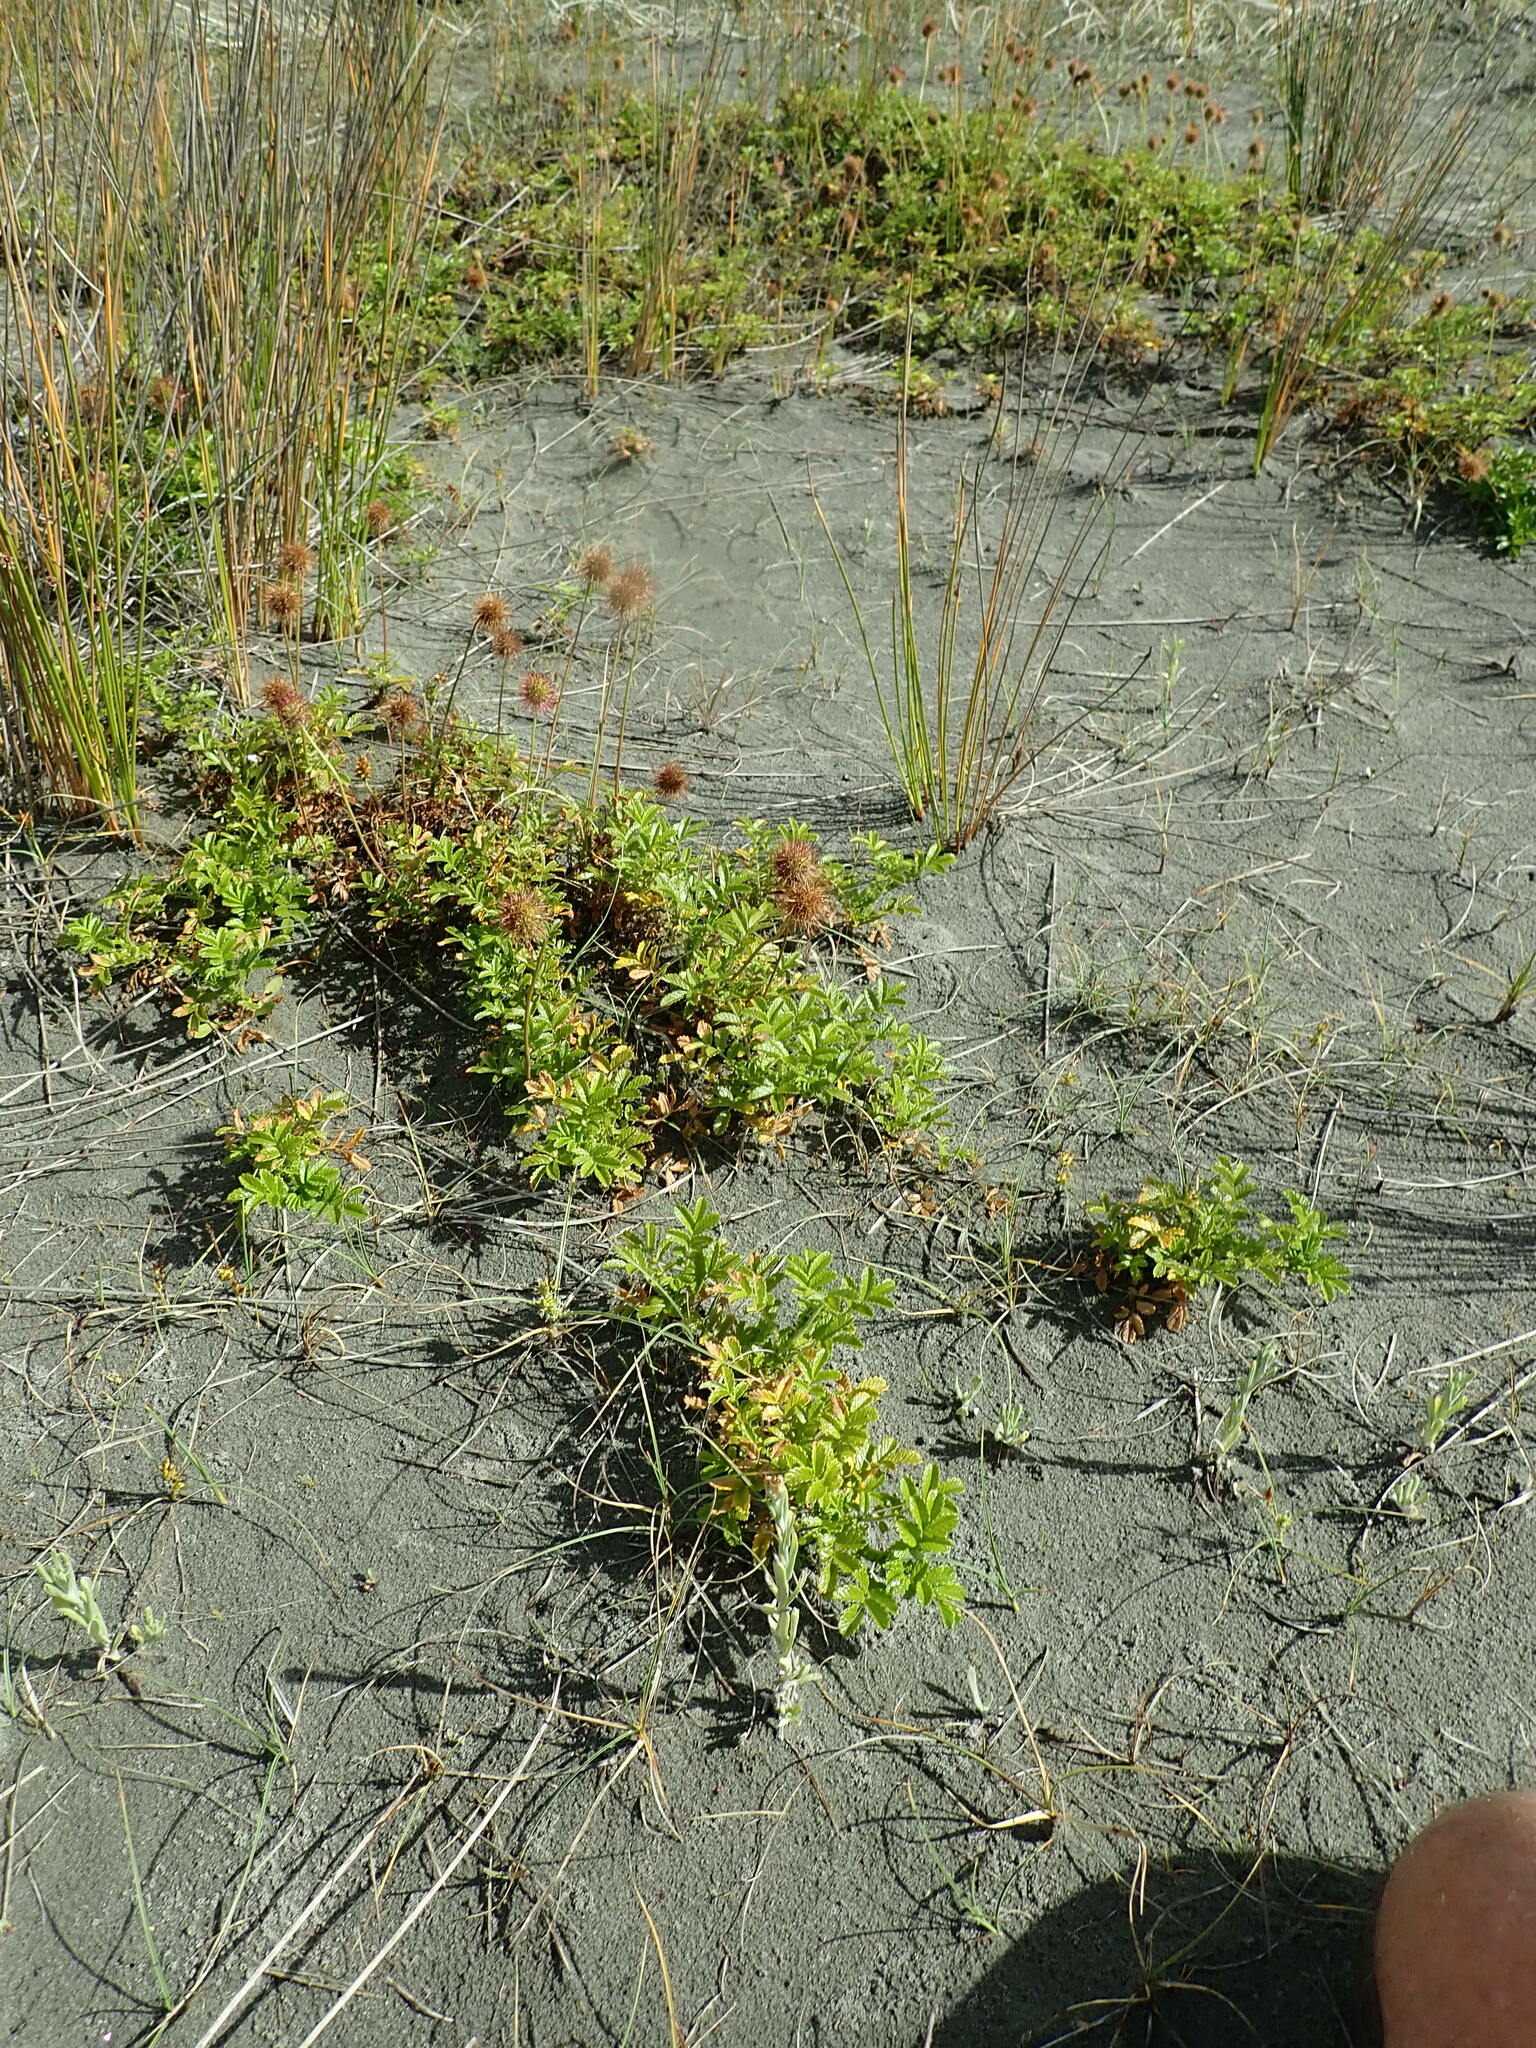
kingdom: Plantae
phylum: Tracheophyta
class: Magnoliopsida
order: Rosales
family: Rosaceae
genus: Acaena
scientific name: Acaena novae-zelandiae
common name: Pirri-pirri-bur
